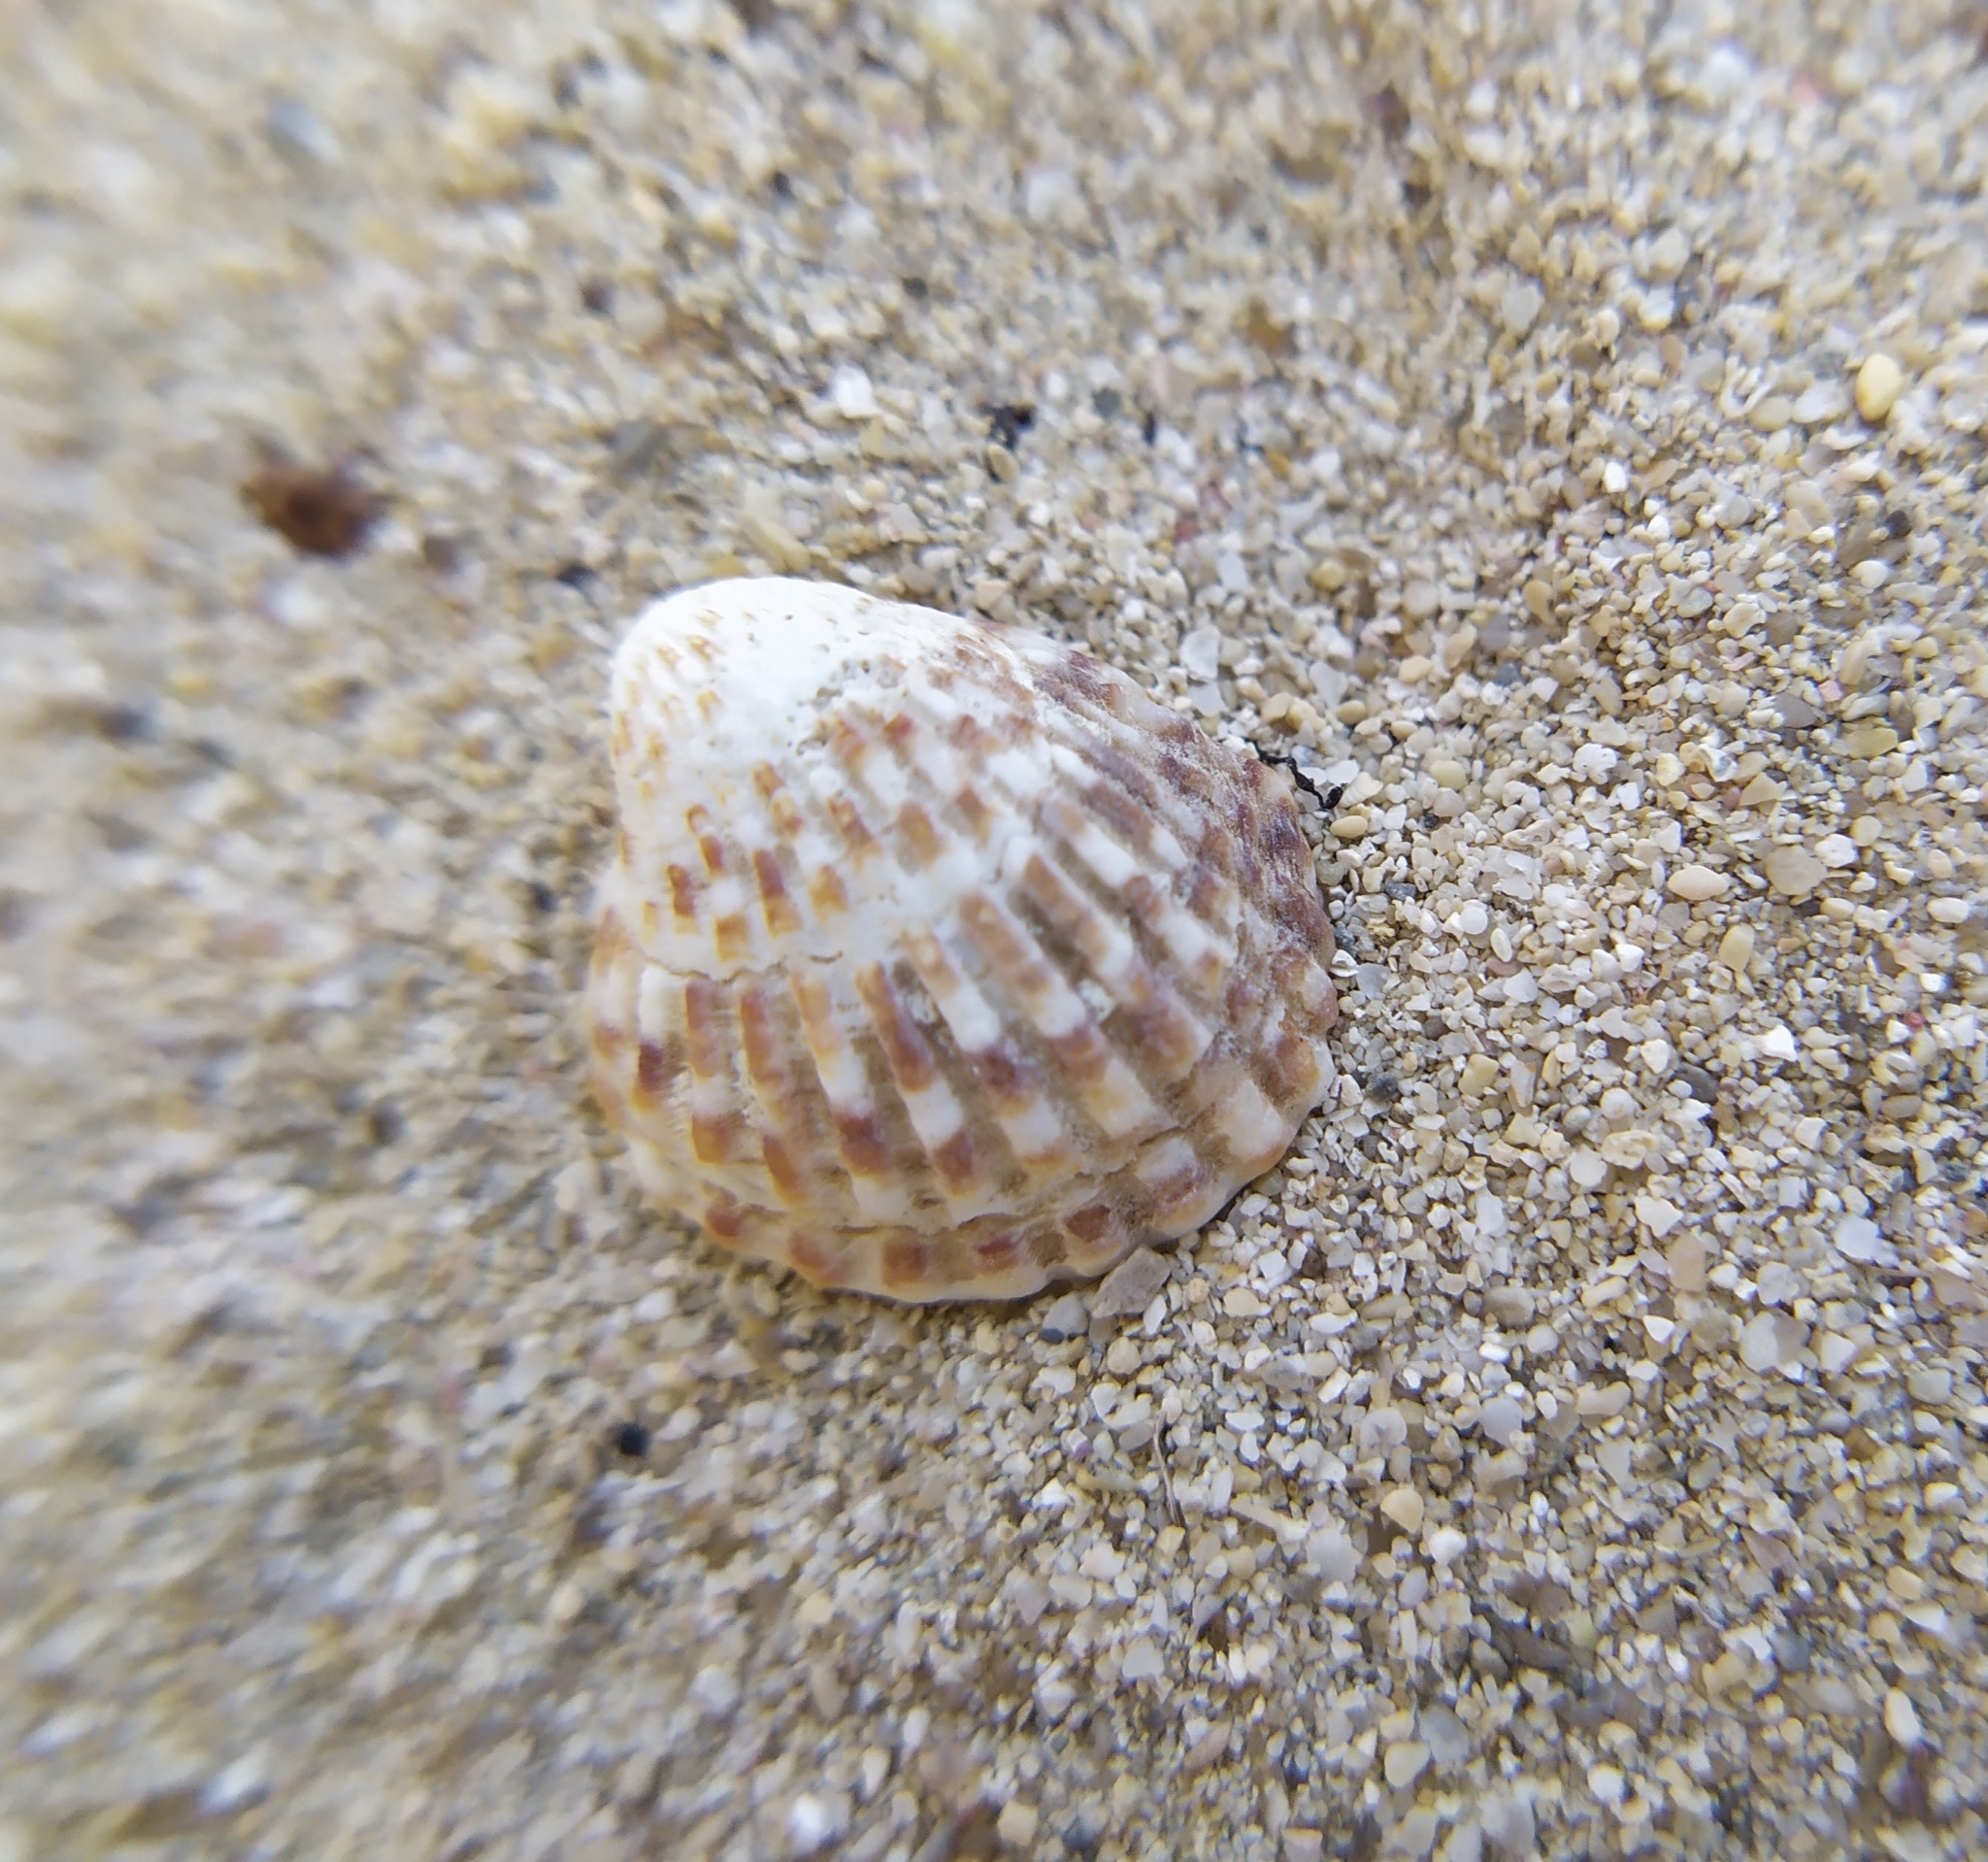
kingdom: Animalia
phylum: Mollusca
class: Bivalvia
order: Carditida
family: Carditidae
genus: Cardites
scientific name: Cardites antiquatus
